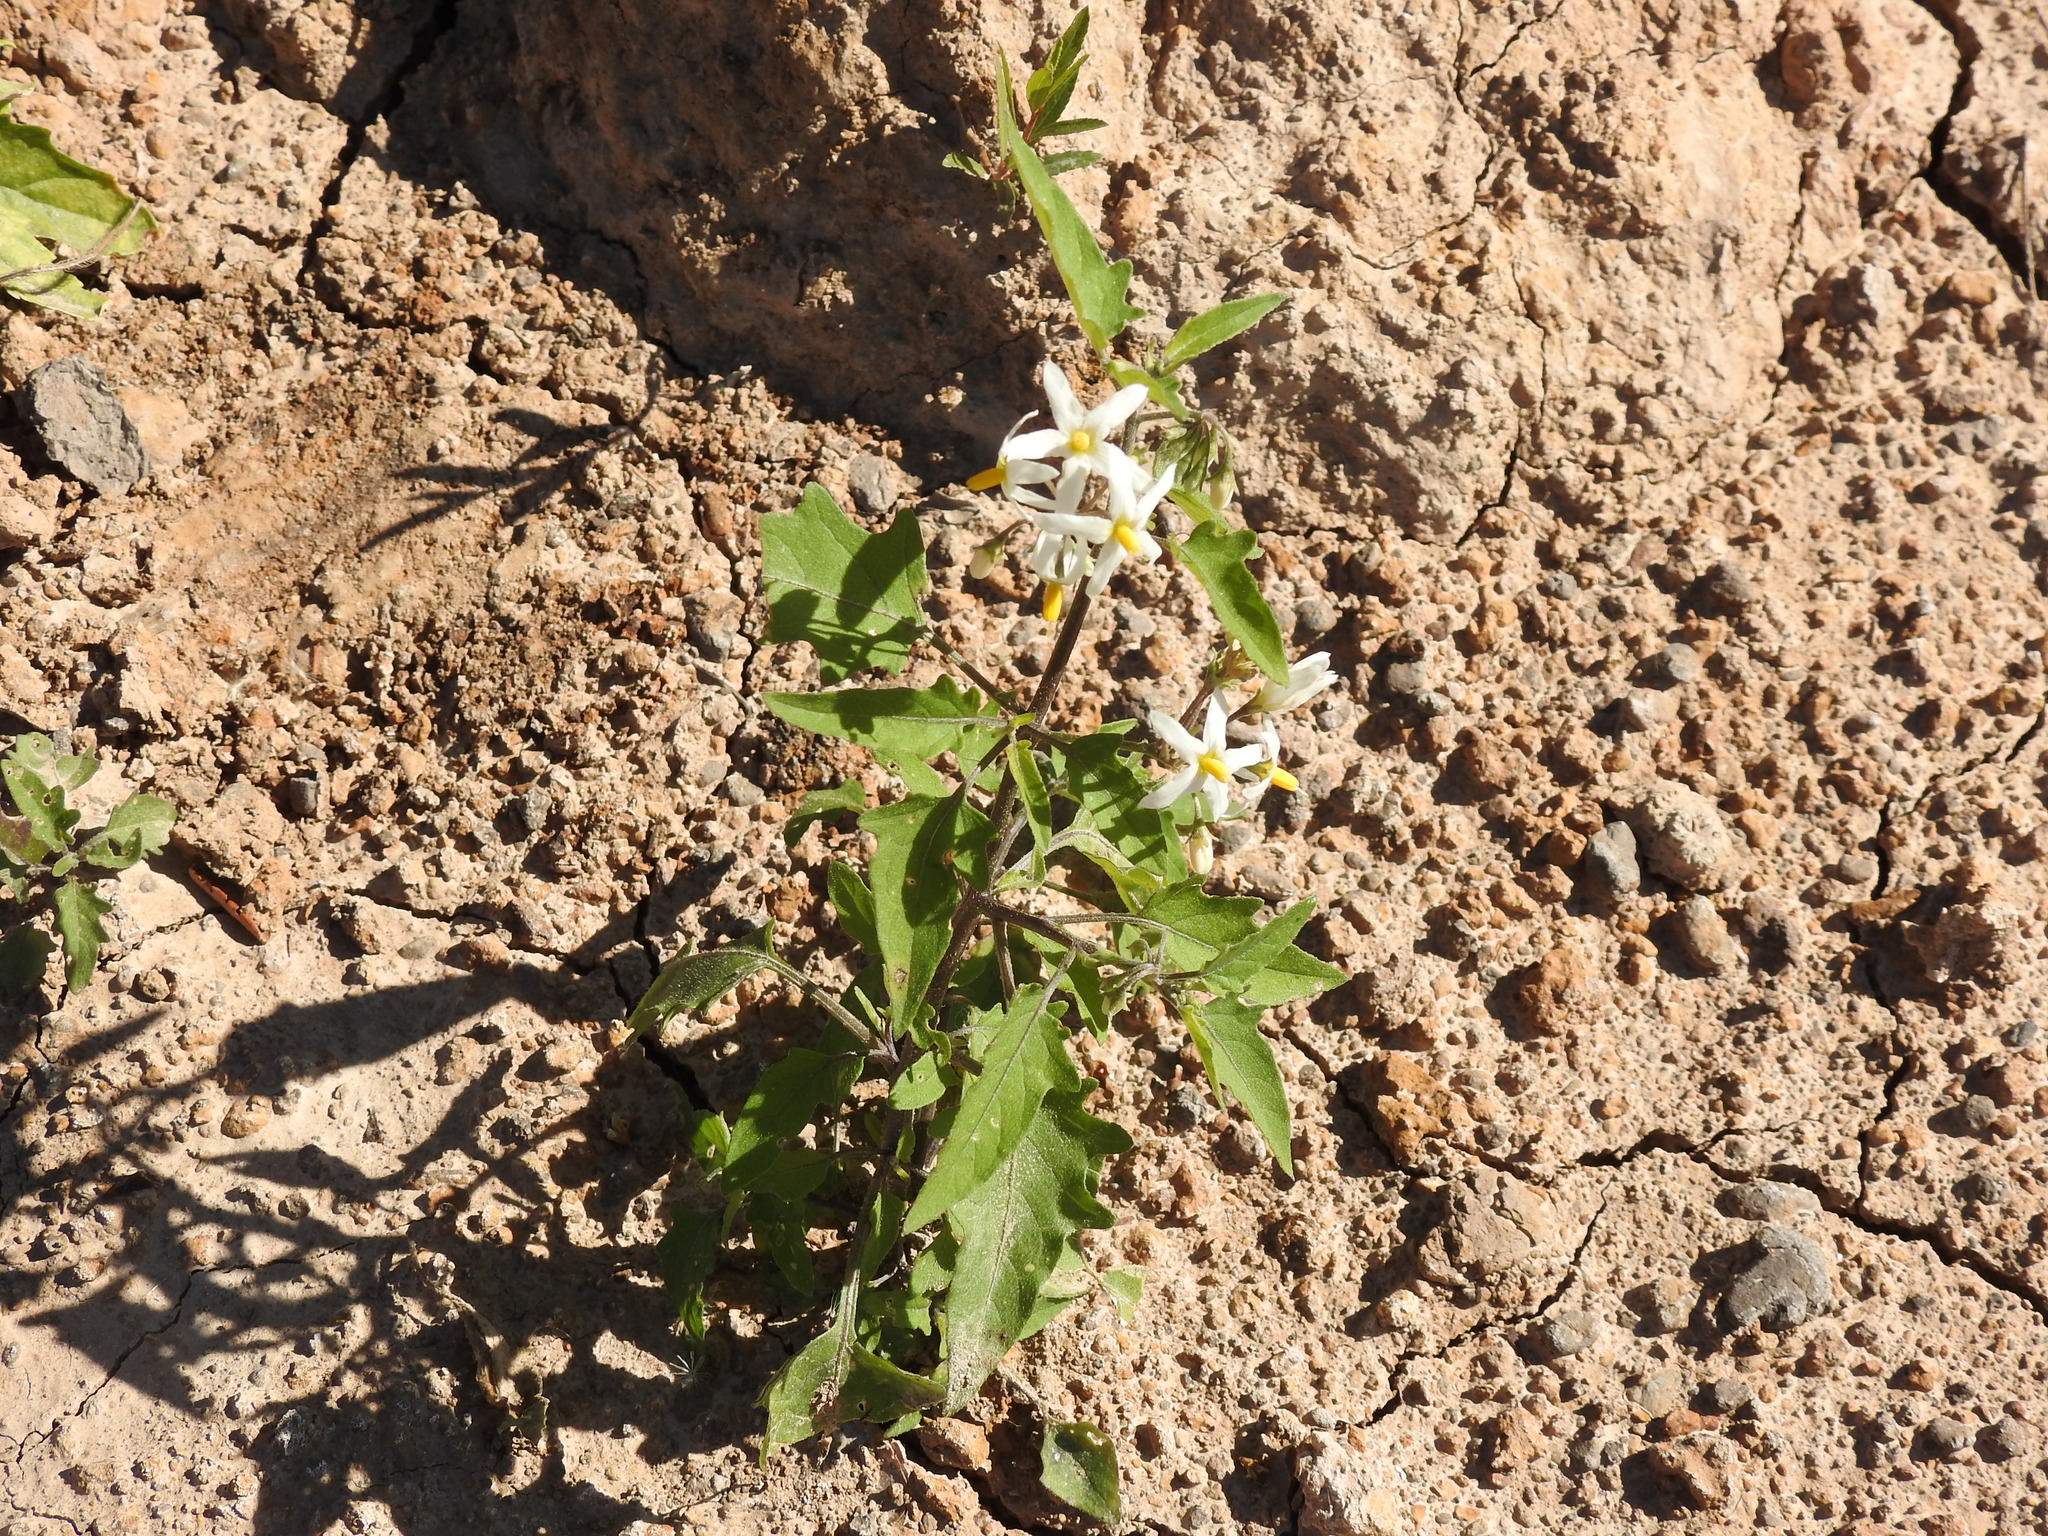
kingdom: Plantae
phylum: Tracheophyta
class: Magnoliopsida
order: Solanales
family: Solanaceae
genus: Solanum
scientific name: Solanum pilcomayense
